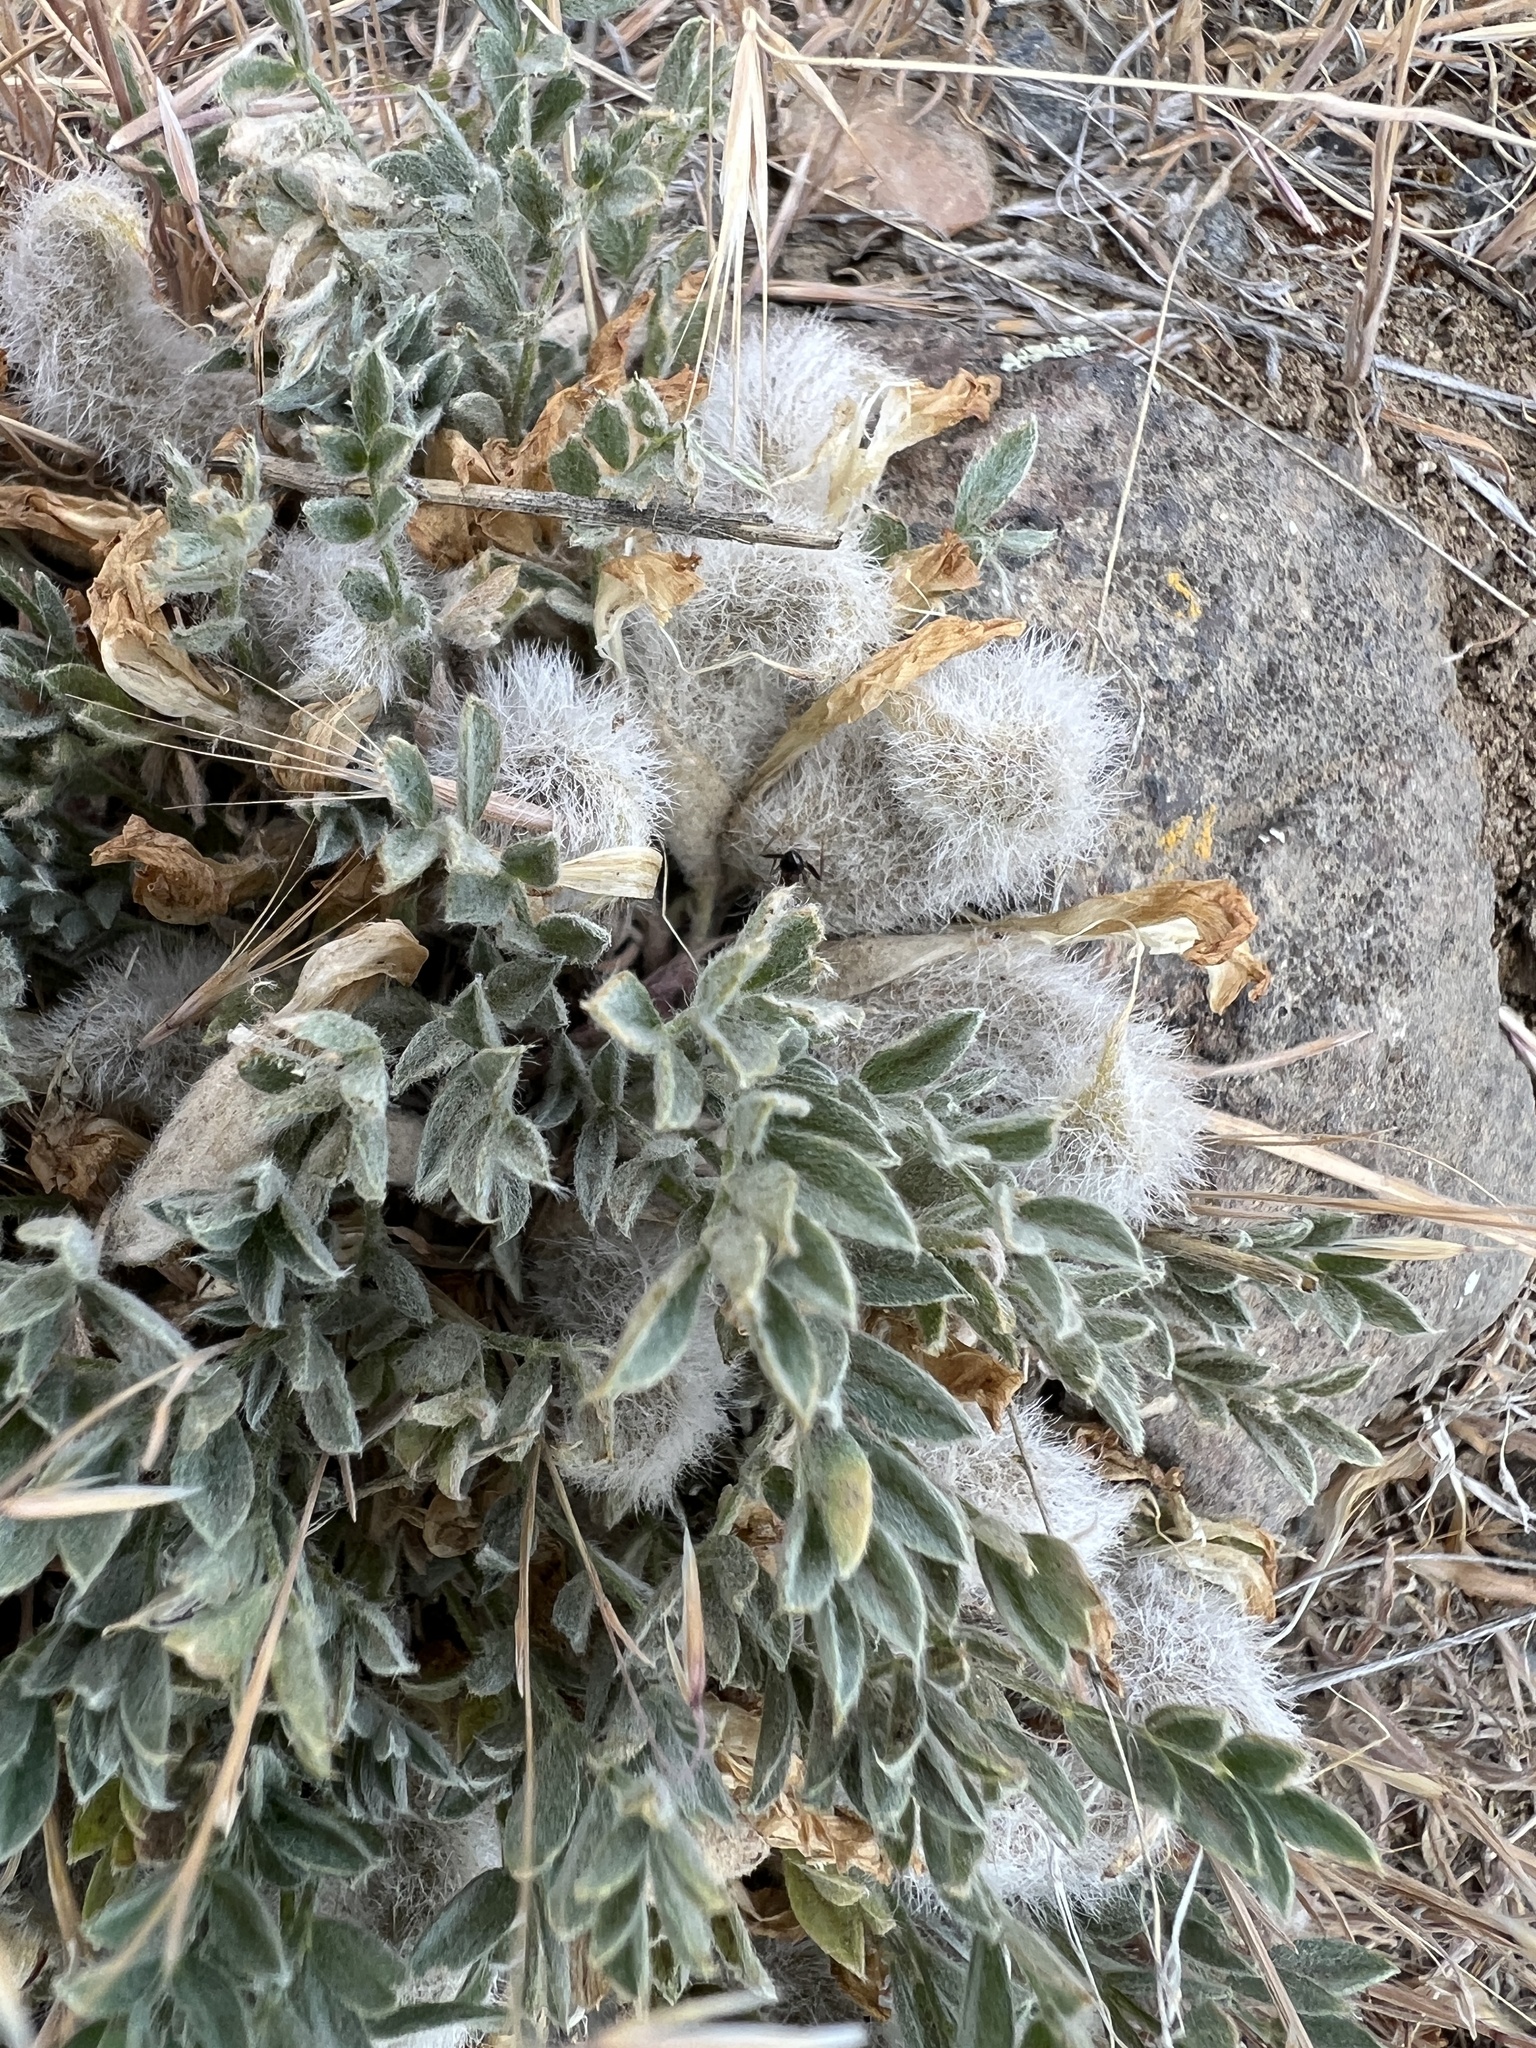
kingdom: Plantae
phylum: Tracheophyta
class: Magnoliopsida
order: Fabales
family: Fabaceae
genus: Astragalus
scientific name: Astragalus purshii
